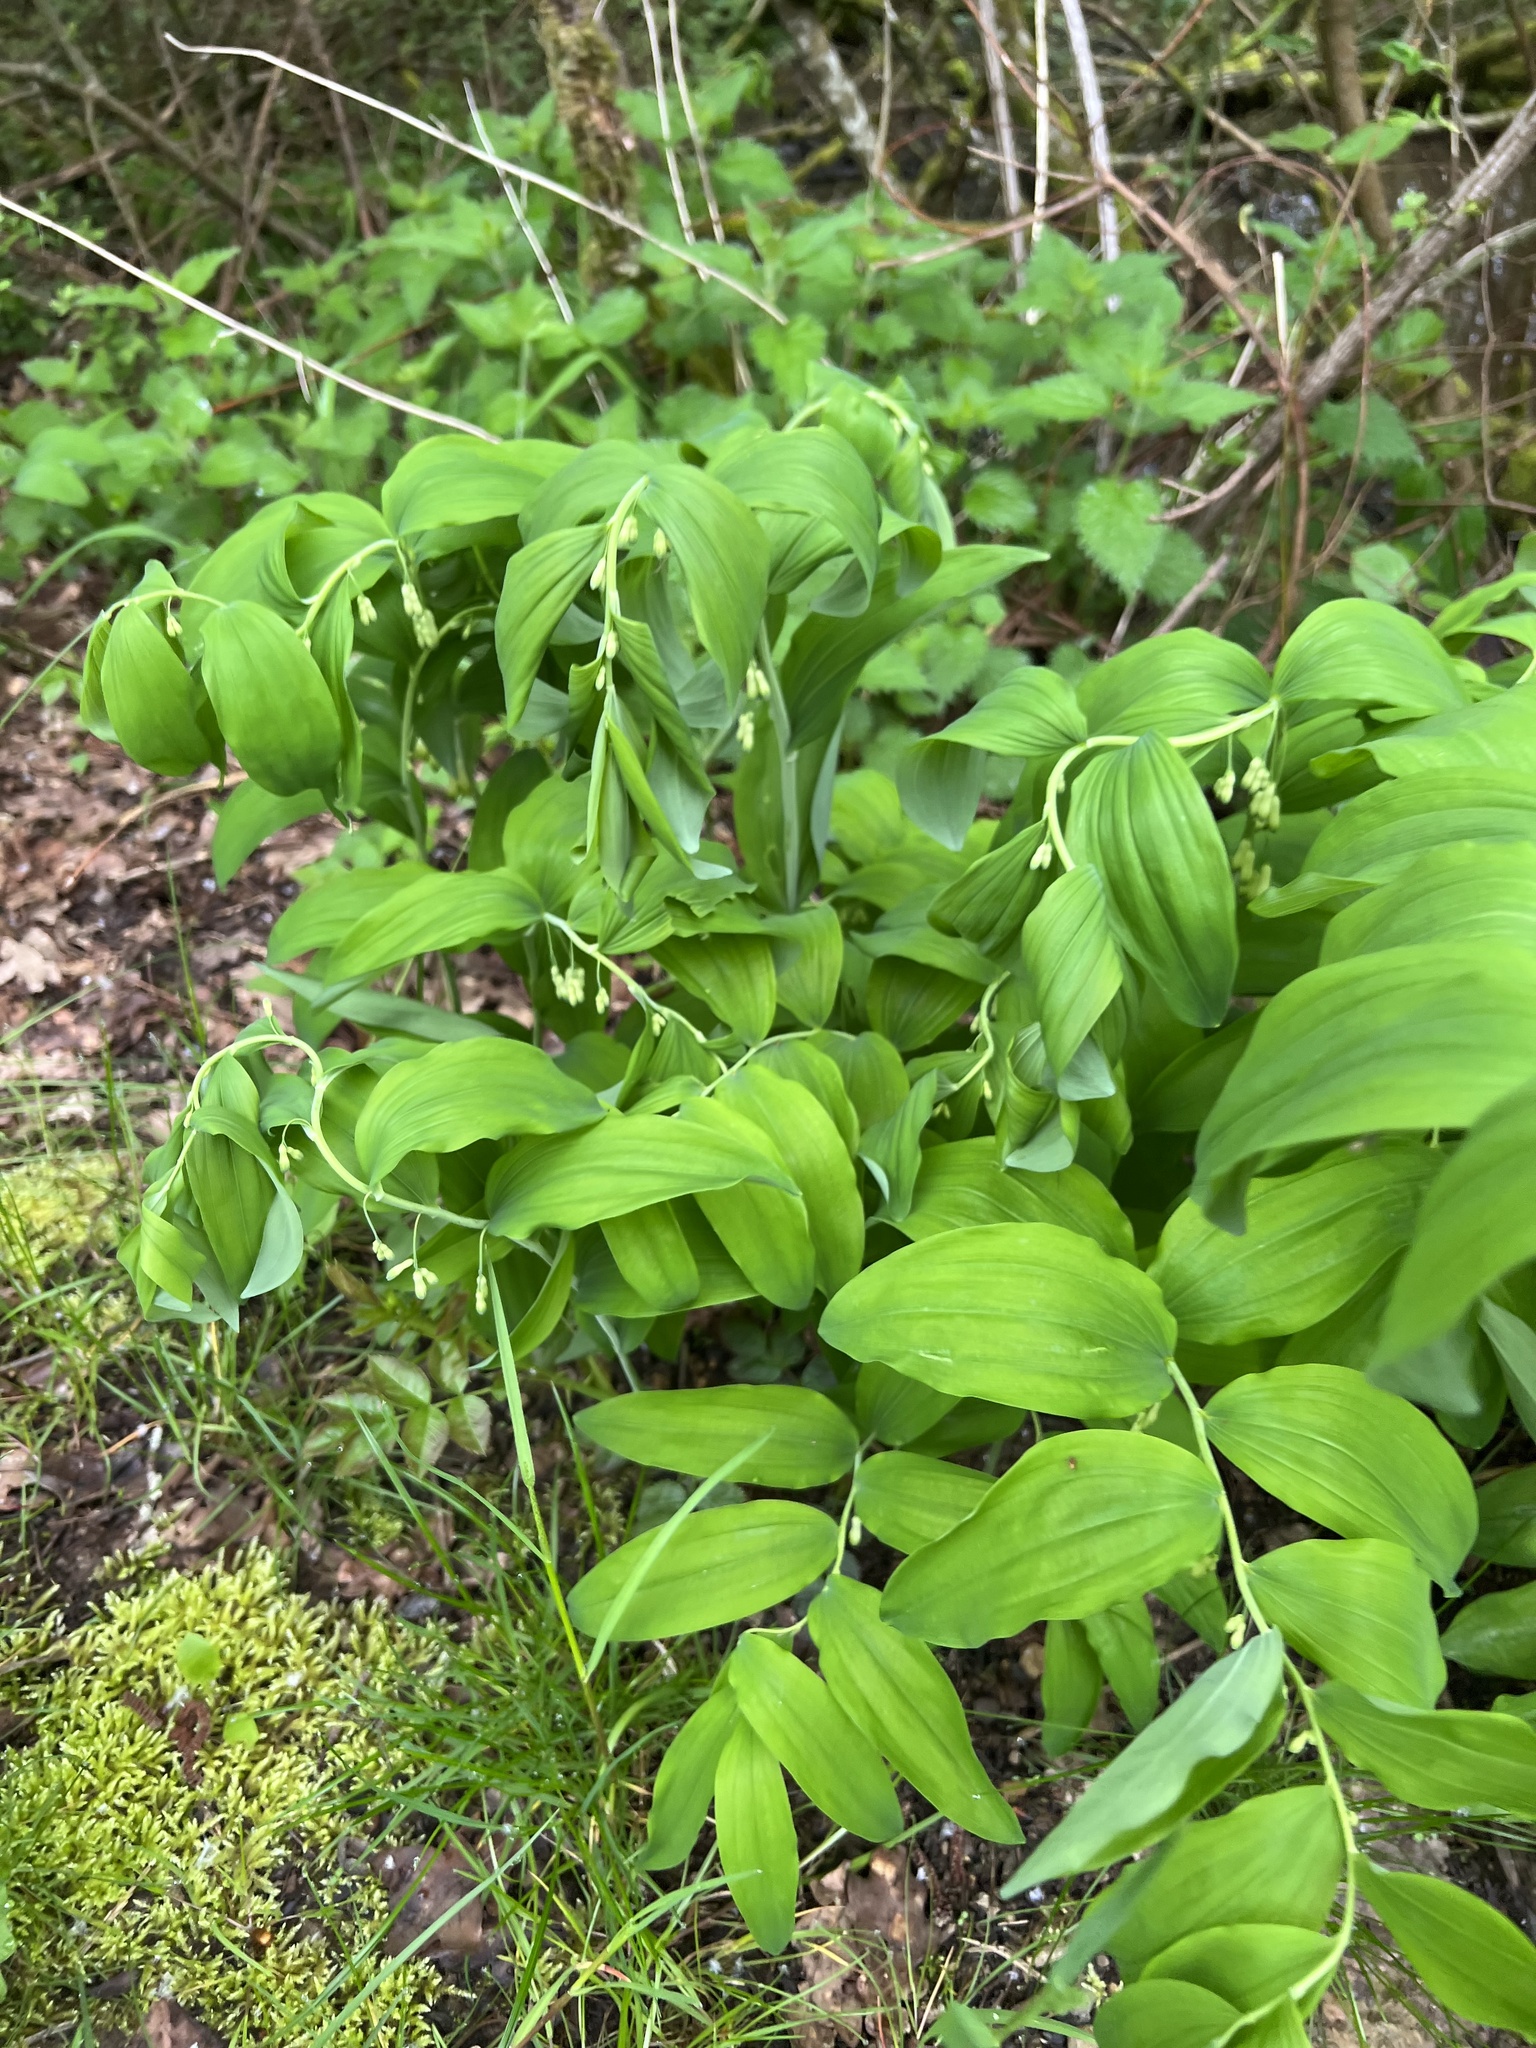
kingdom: Plantae
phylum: Tracheophyta
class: Liliopsida
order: Asparagales
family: Asparagaceae
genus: Polygonatum
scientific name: Polygonatum multiflorum
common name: Solomon's-seal
